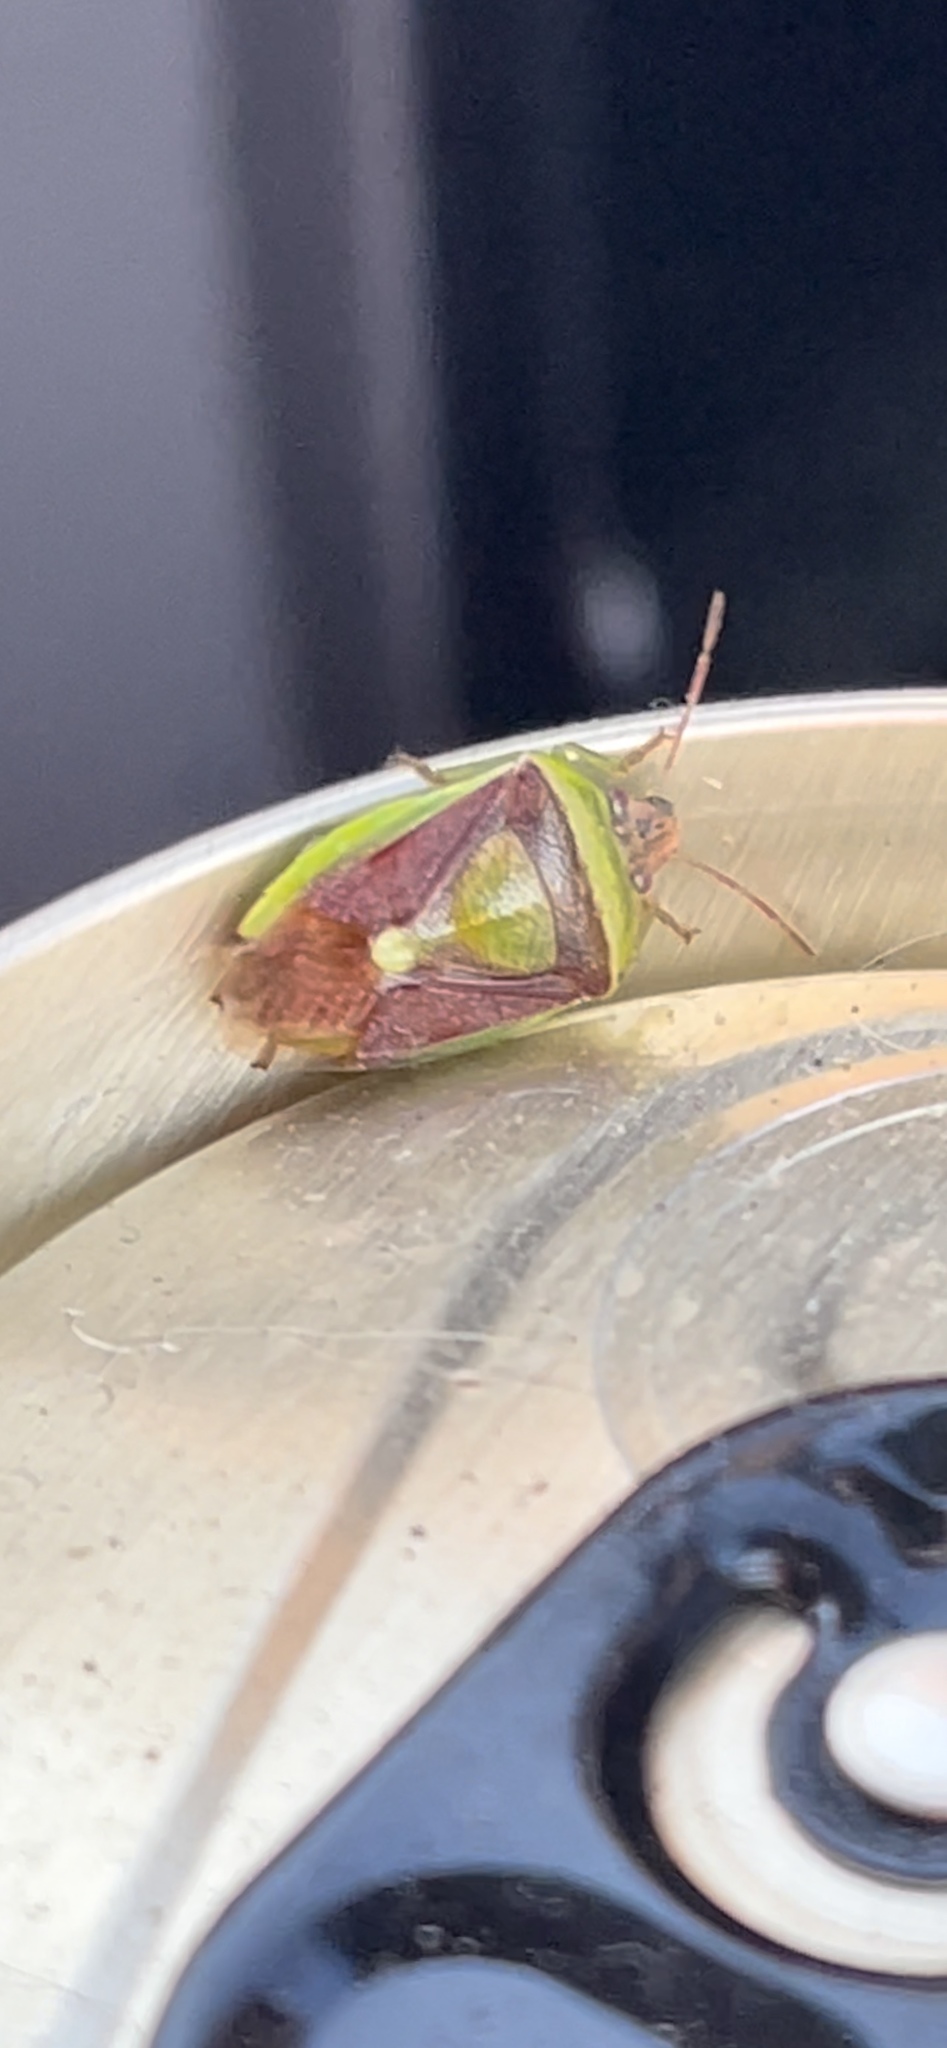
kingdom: Animalia
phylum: Arthropoda
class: Insecta
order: Hemiptera
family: Pentatomidae
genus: Banasa
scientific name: Banasa dimidiata
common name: Green burgundy stink bug
